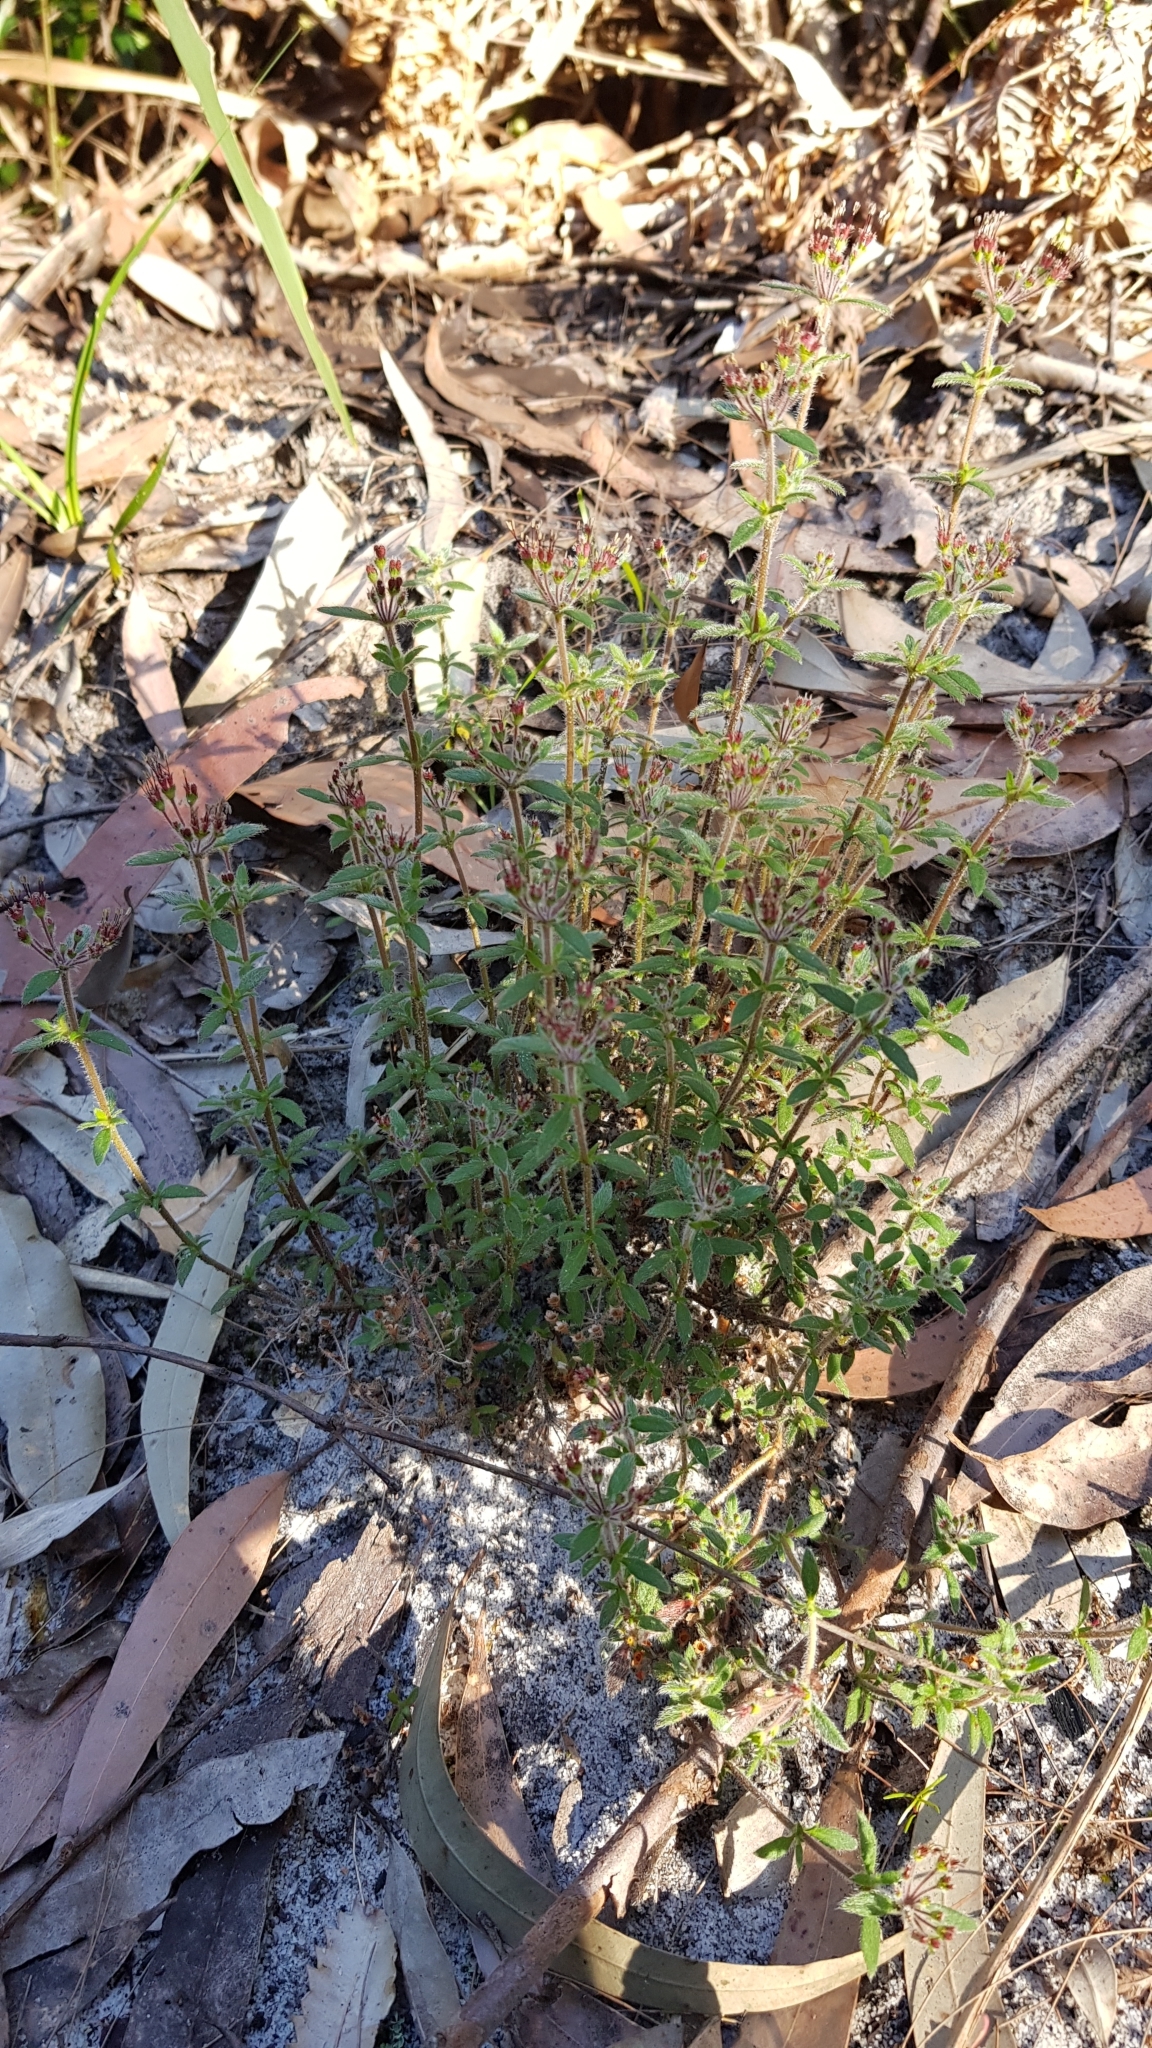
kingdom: Plantae
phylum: Tracheophyta
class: Magnoliopsida
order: Gentianales
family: Rubiaceae
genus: Pomax
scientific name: Pomax umbellata
